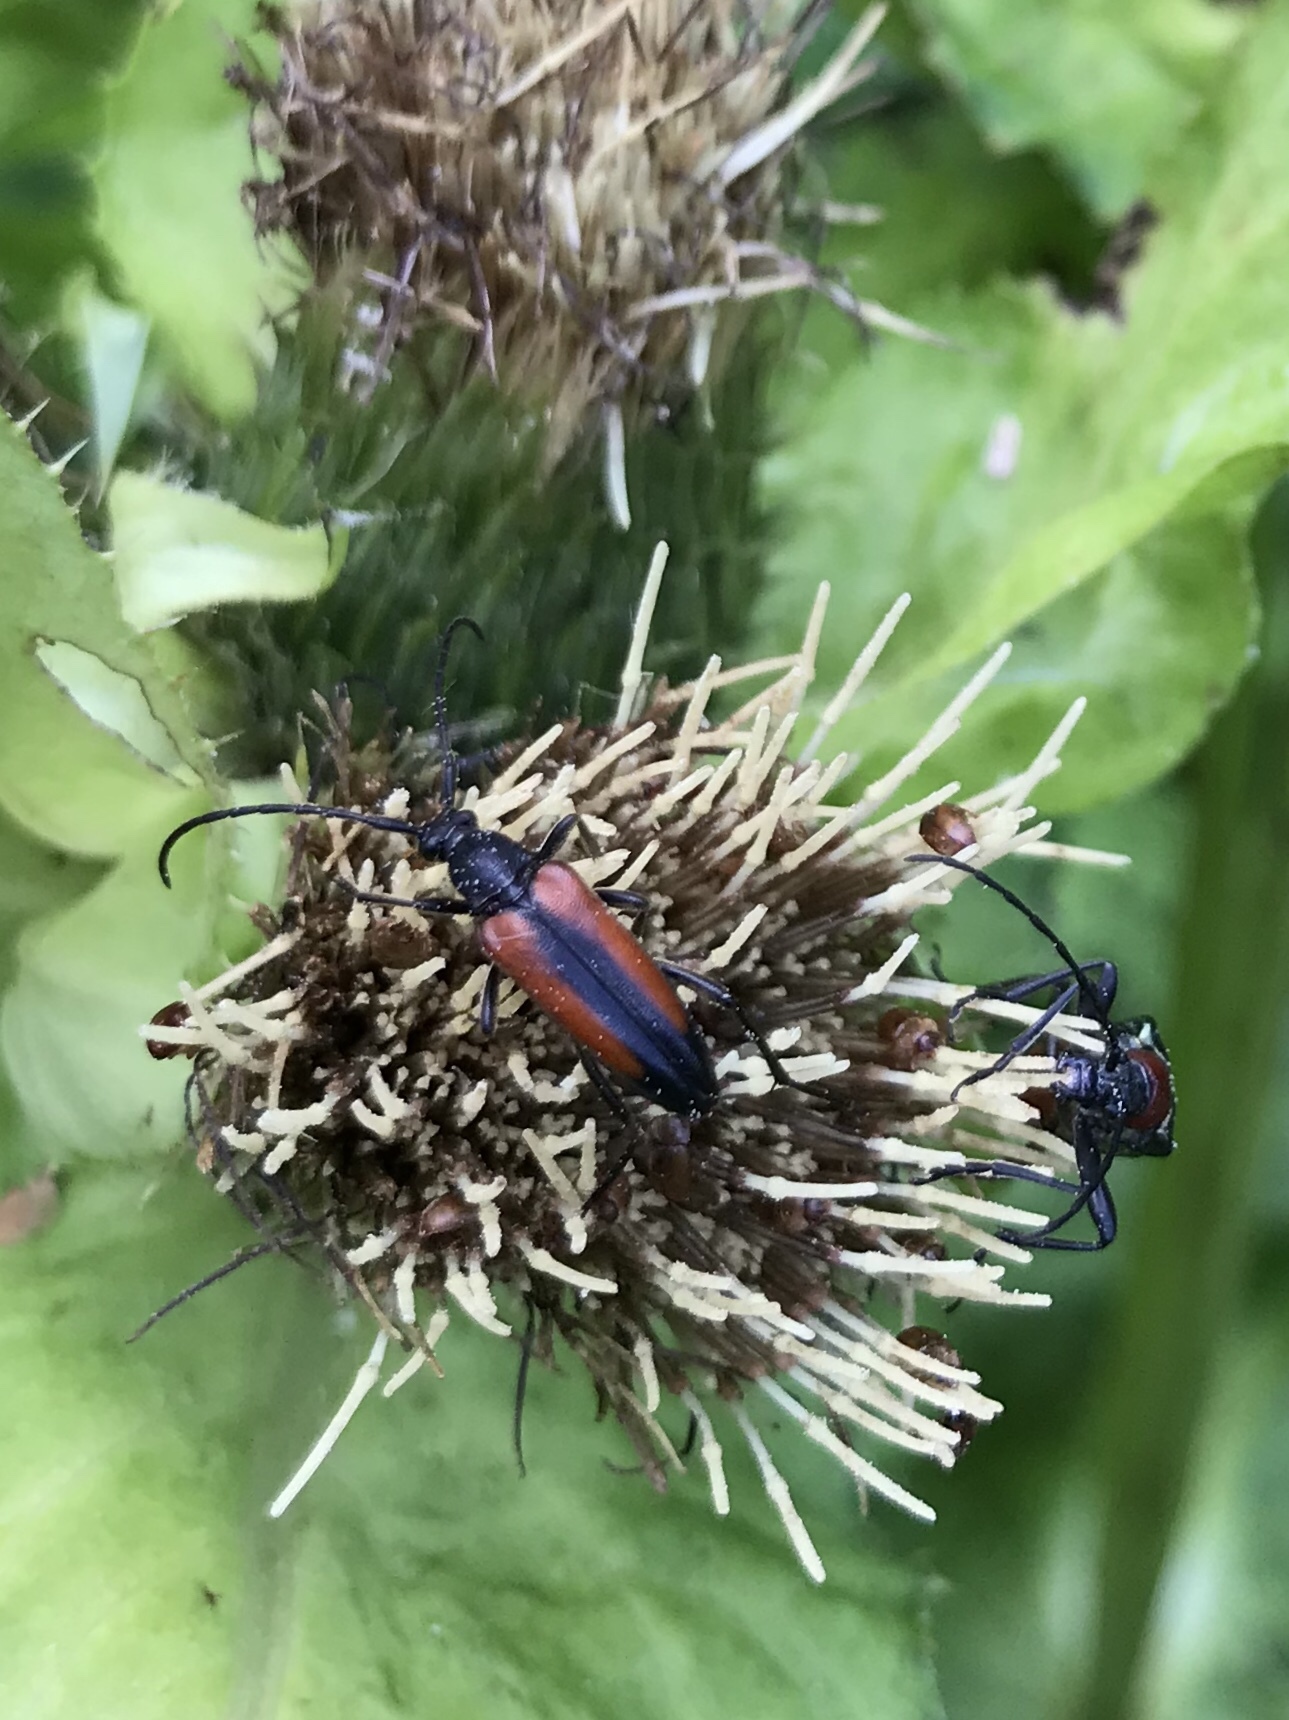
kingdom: Animalia
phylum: Arthropoda
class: Insecta
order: Coleoptera
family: Cerambycidae
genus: Stenurella
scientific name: Stenurella melanura
